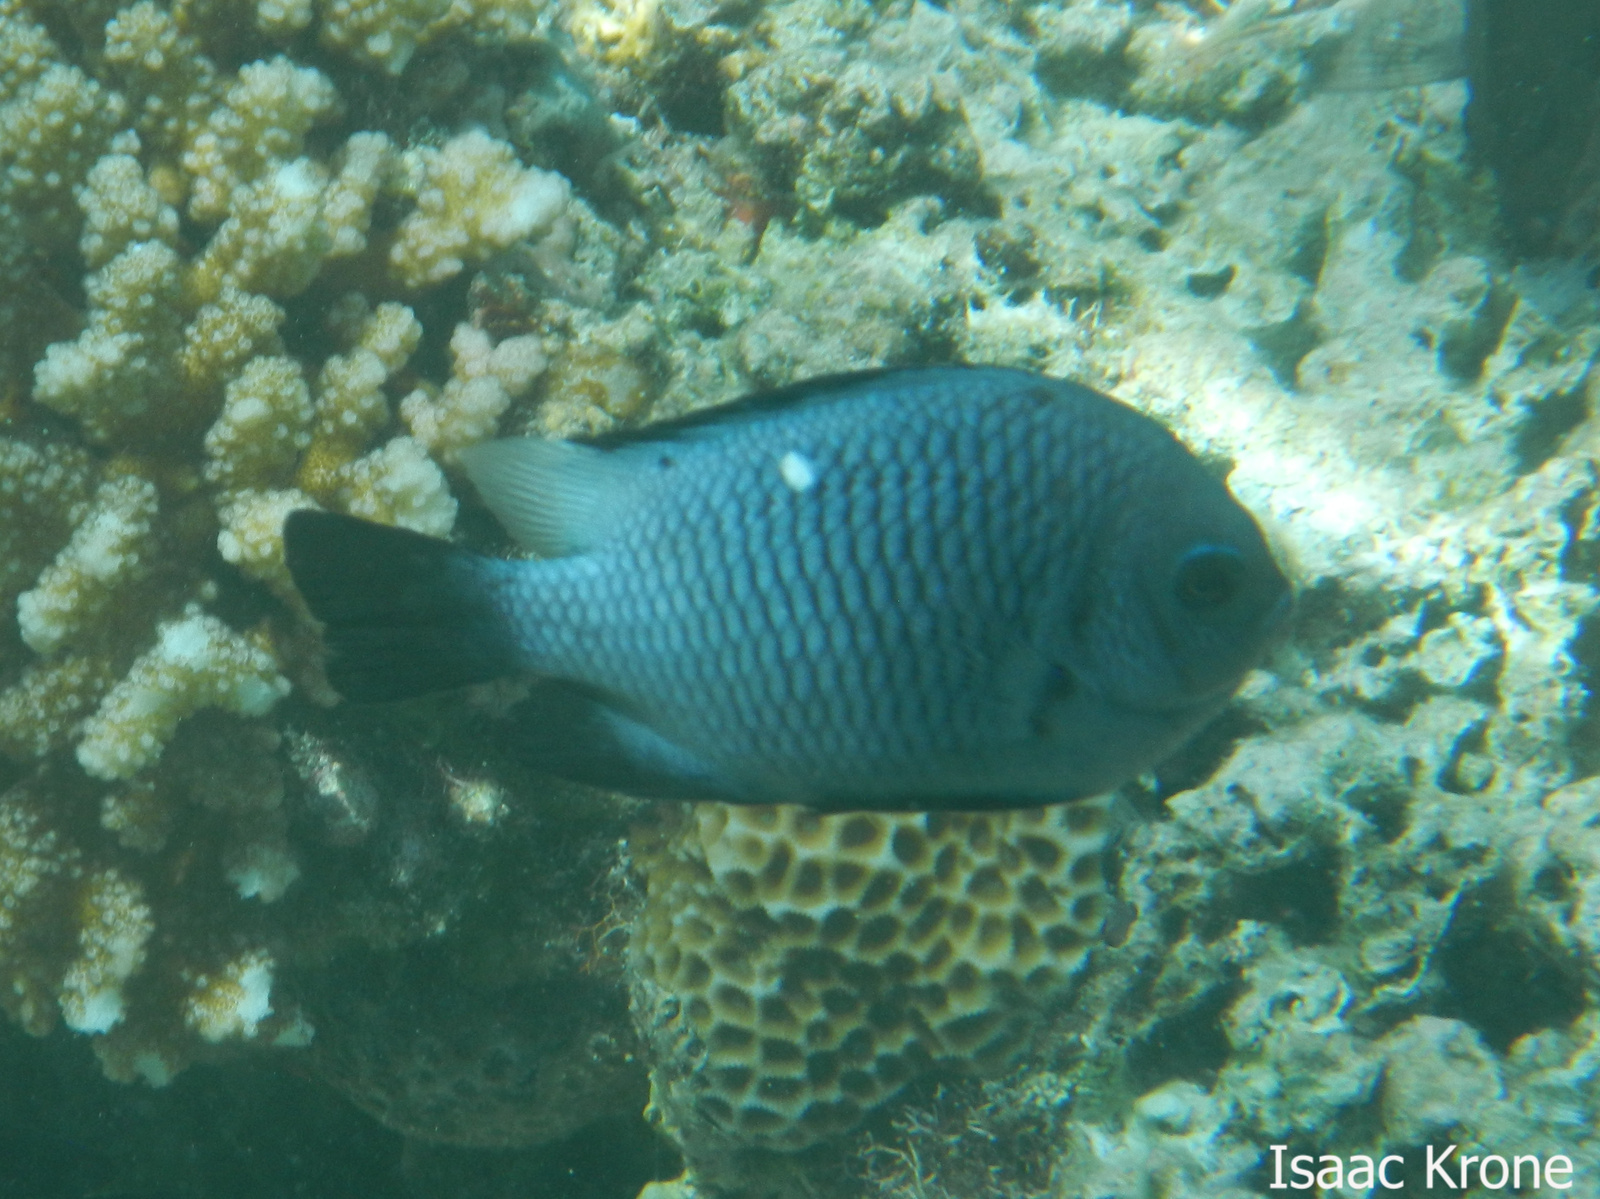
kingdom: Animalia
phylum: Chordata
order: Perciformes
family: Pomacentridae
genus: Dascyllus
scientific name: Dascyllus trimaculatus
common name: Threespot dascyllus
